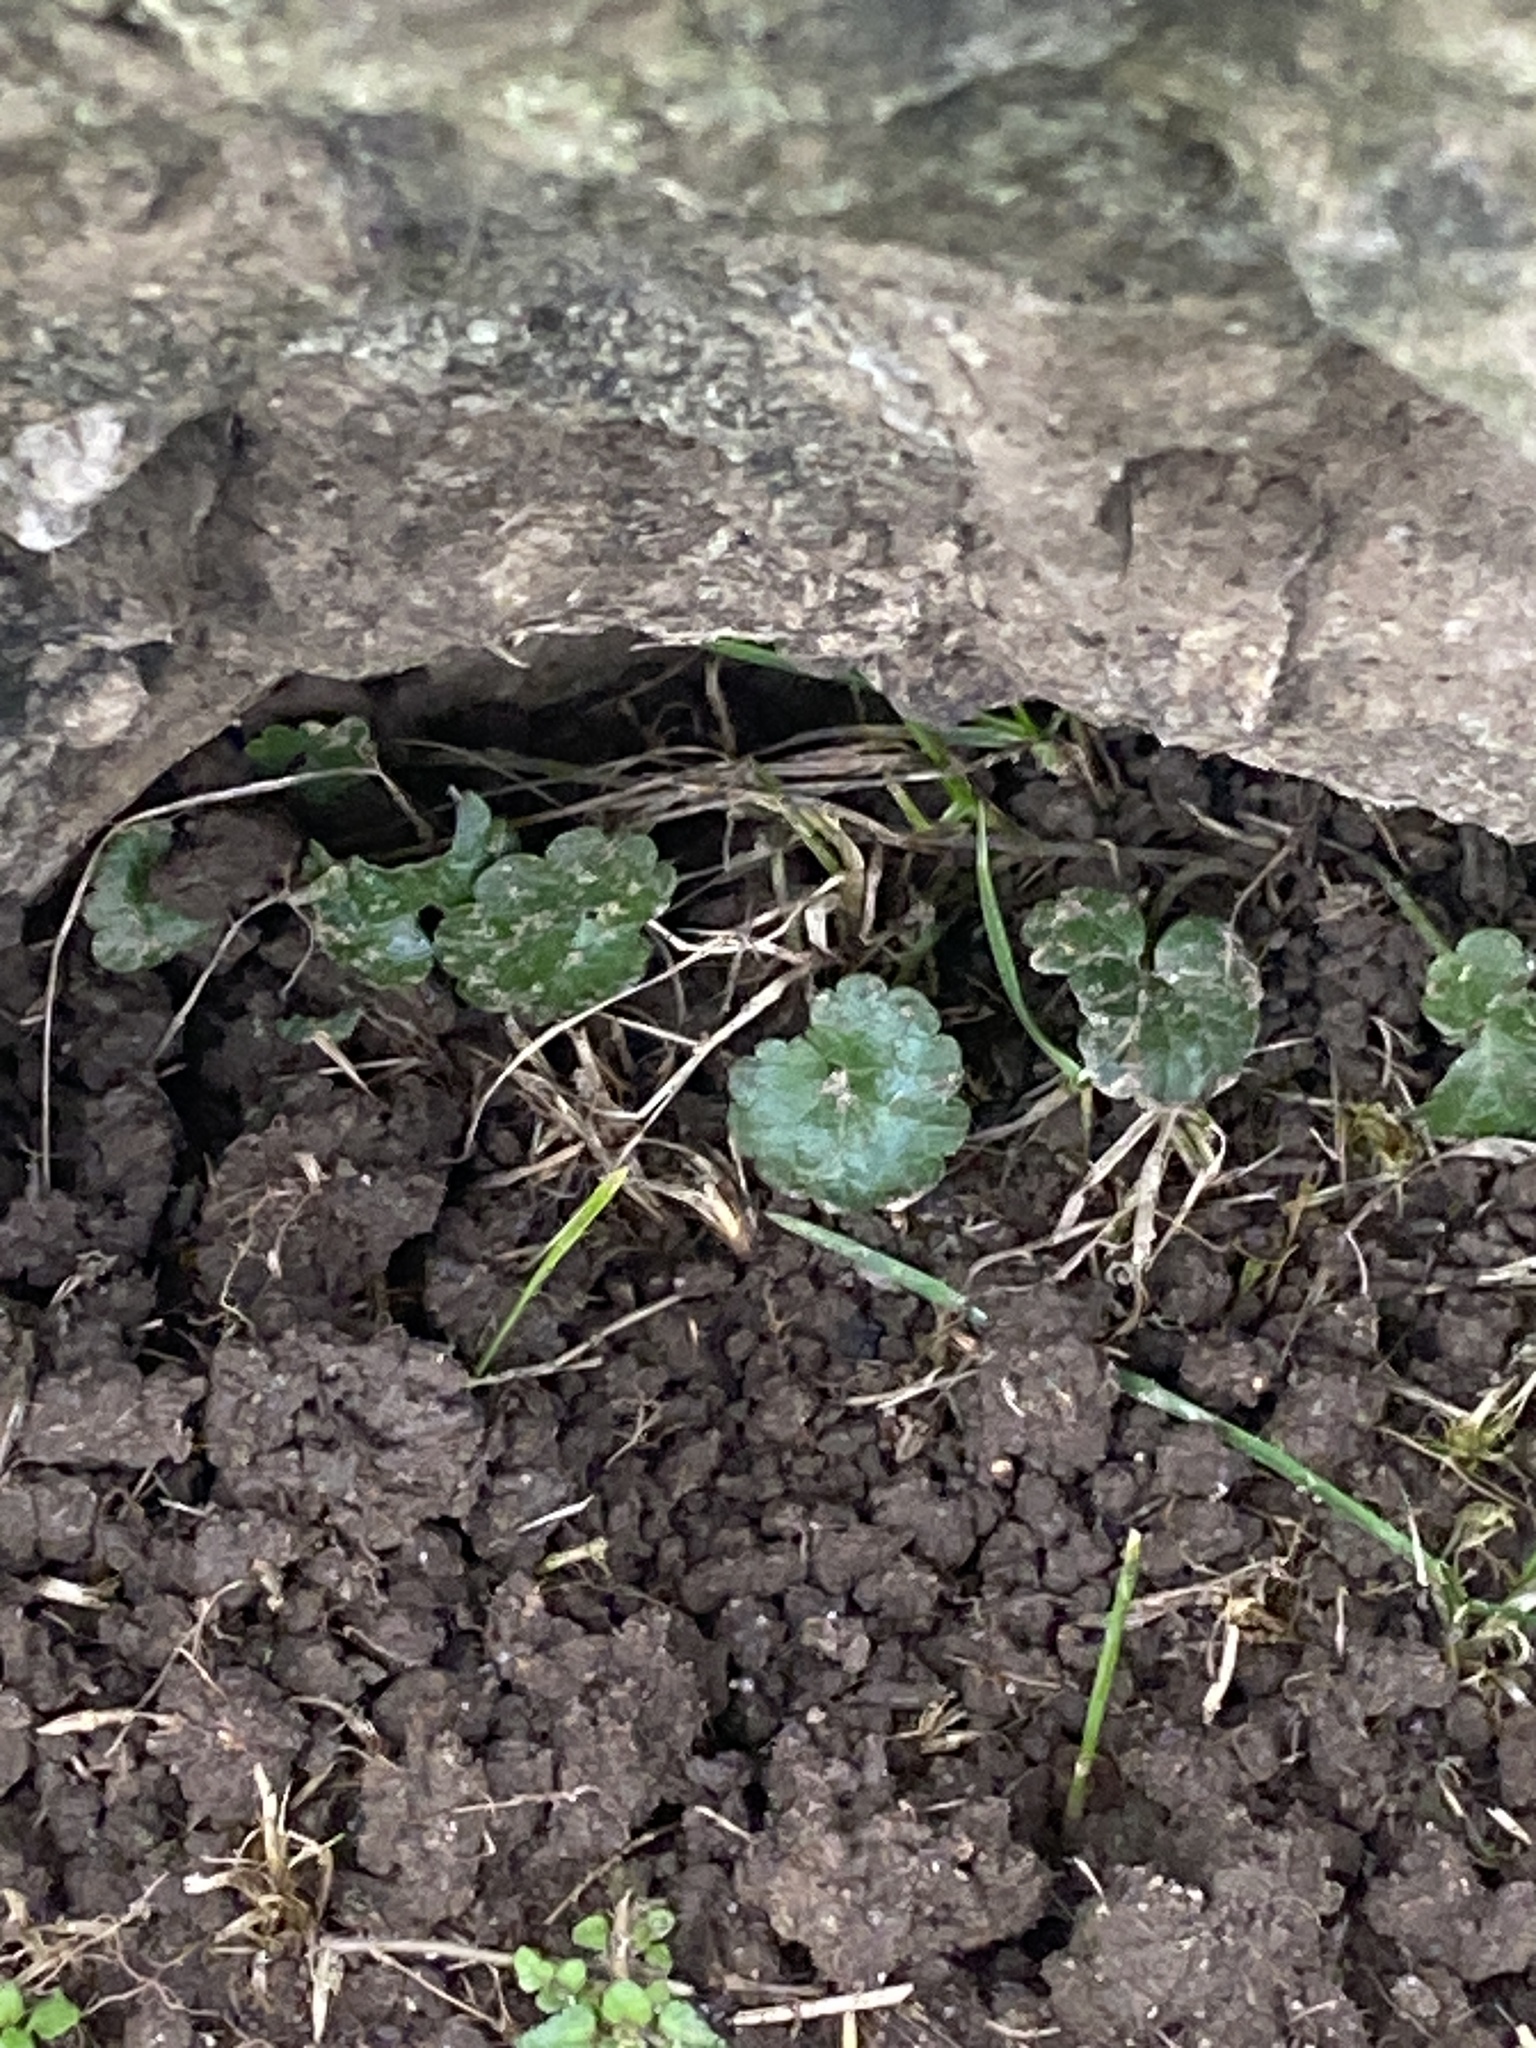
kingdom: Plantae
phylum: Tracheophyta
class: Magnoliopsida
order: Lamiales
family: Lamiaceae
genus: Glechoma
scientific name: Glechoma hederacea
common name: Ground ivy
